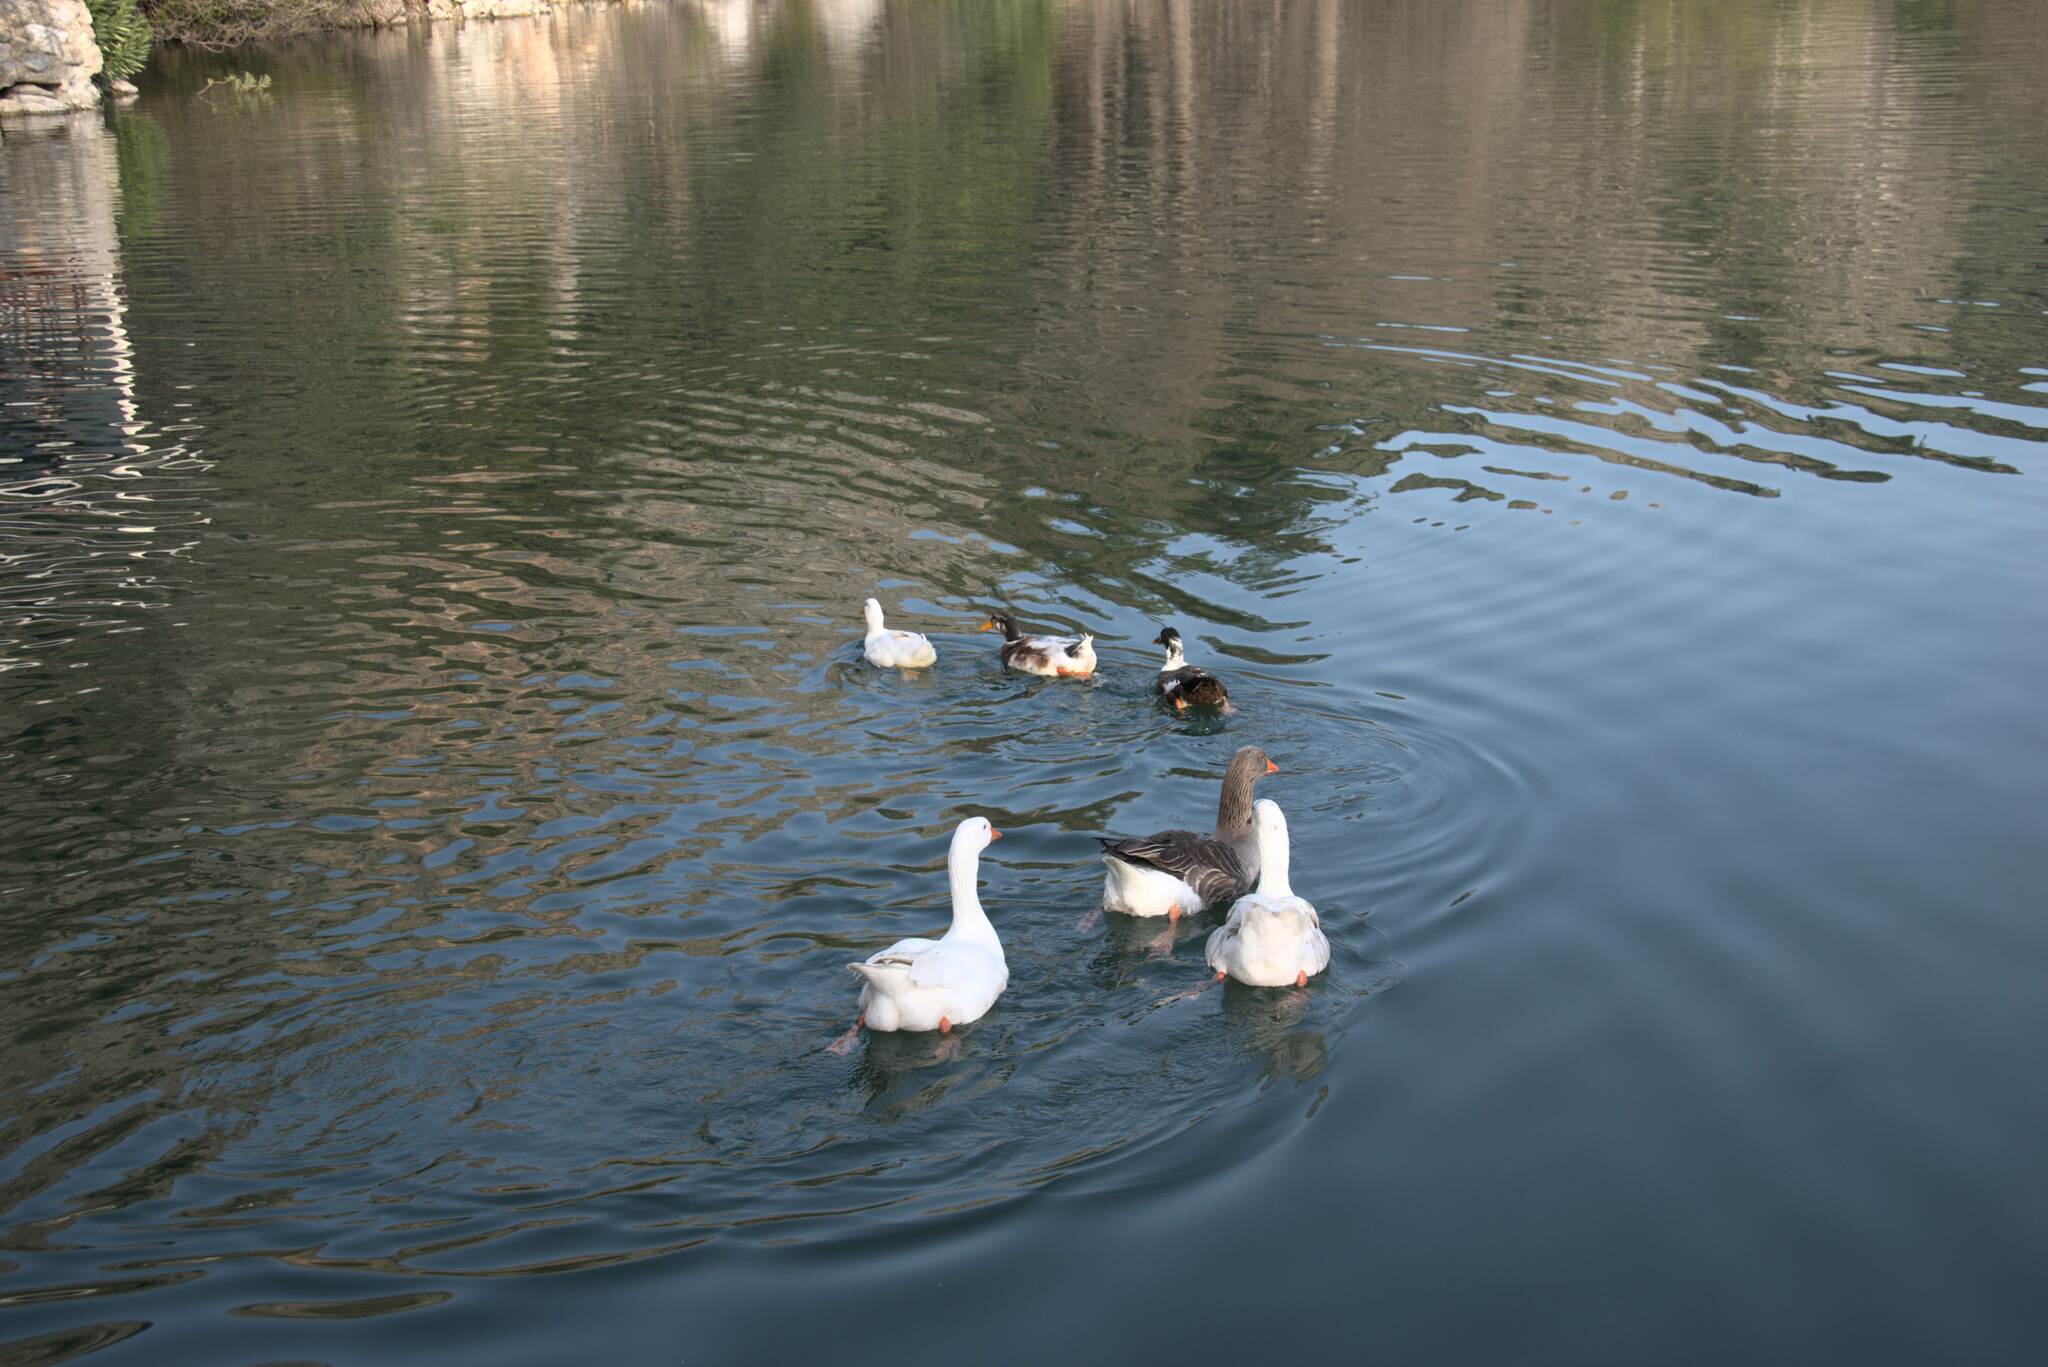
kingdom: Animalia
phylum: Chordata
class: Aves
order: Anseriformes
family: Anatidae
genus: Anser
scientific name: Anser anser
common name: Greylag goose
